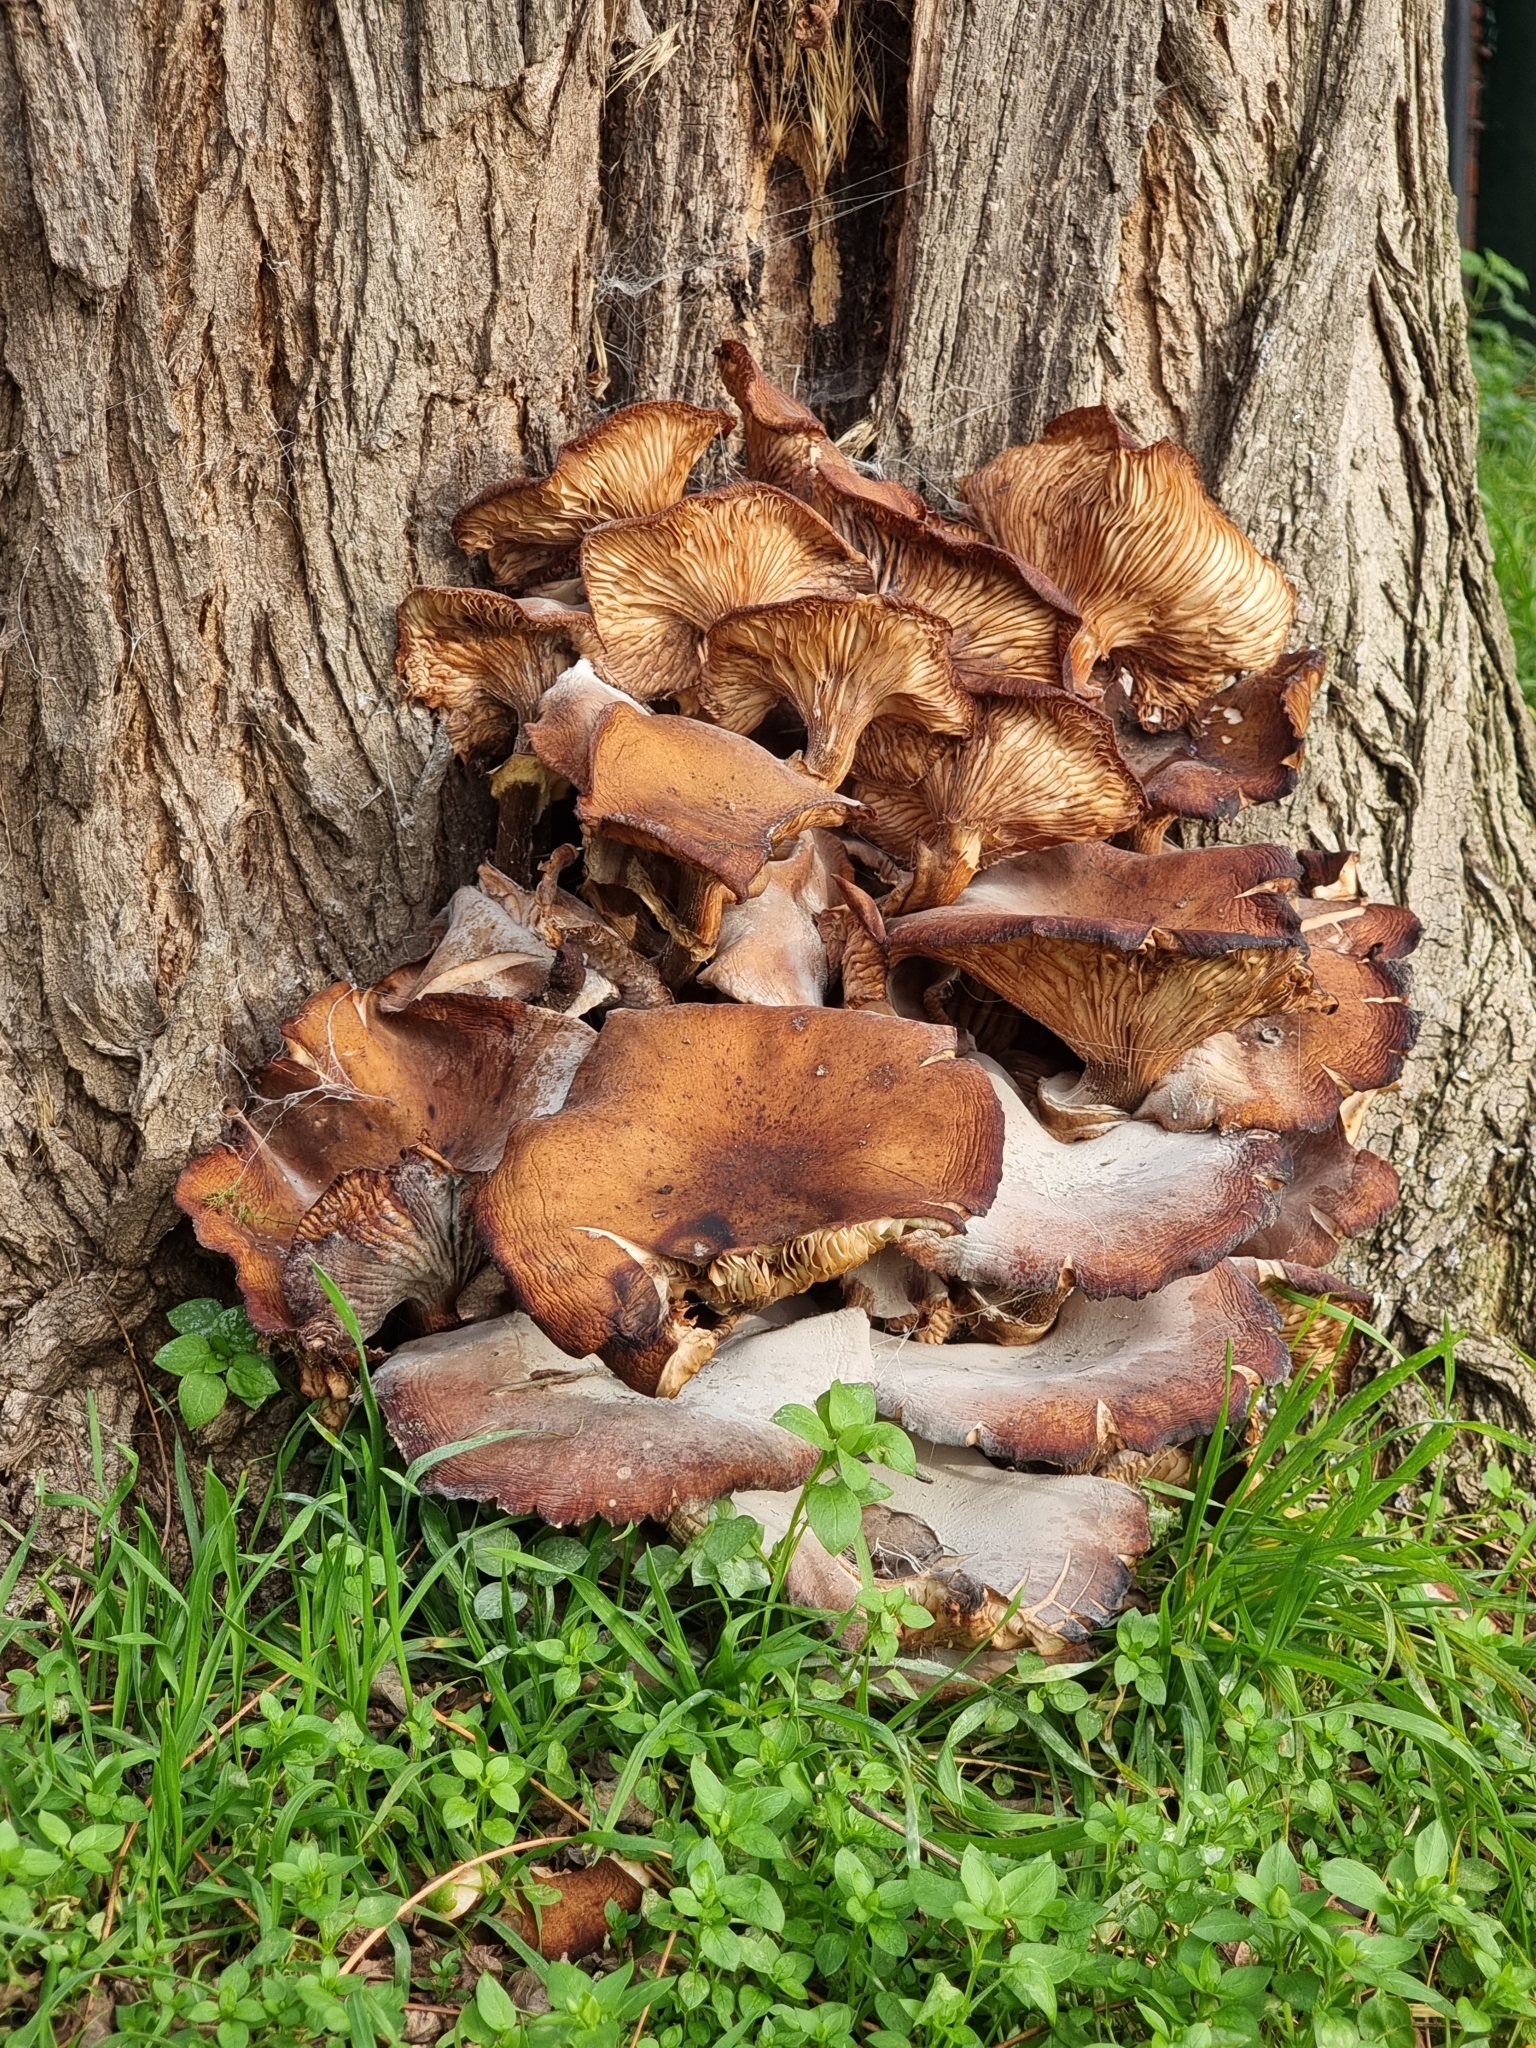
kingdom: Fungi
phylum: Basidiomycota
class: Agaricomycetes
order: Agaricales
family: Physalacriaceae
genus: Armillaria
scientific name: Armillaria mellea
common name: Honey fungus
